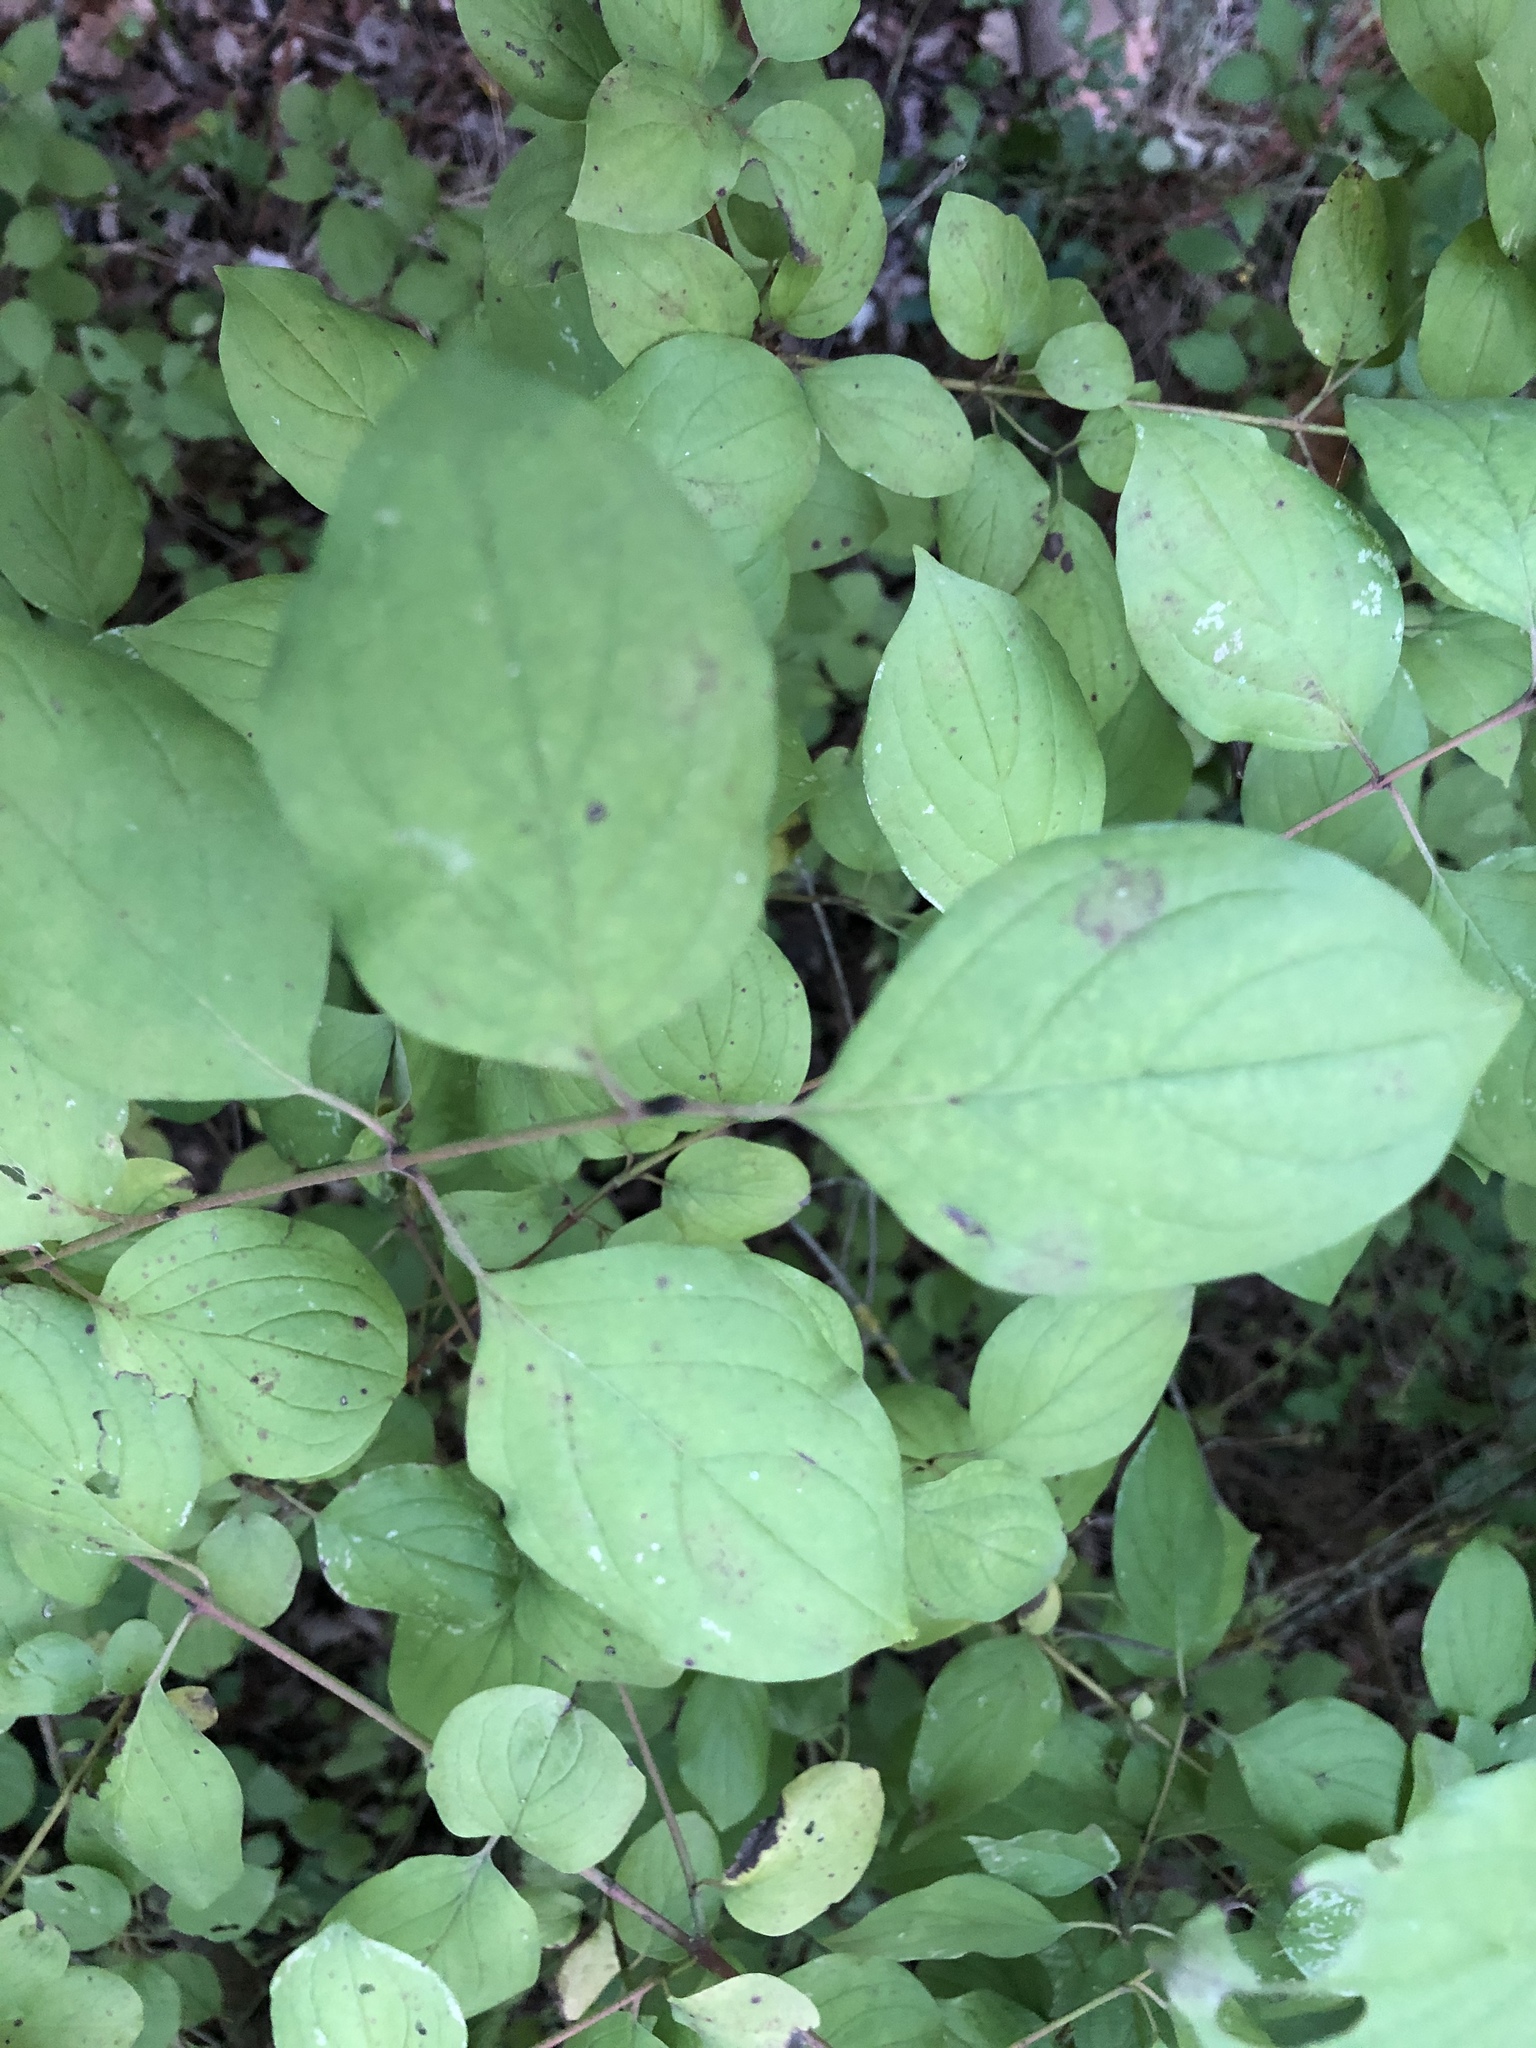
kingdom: Plantae
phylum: Tracheophyta
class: Magnoliopsida
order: Cornales
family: Cornaceae
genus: Cornus
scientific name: Cornus sanguinea
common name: Dogwood
